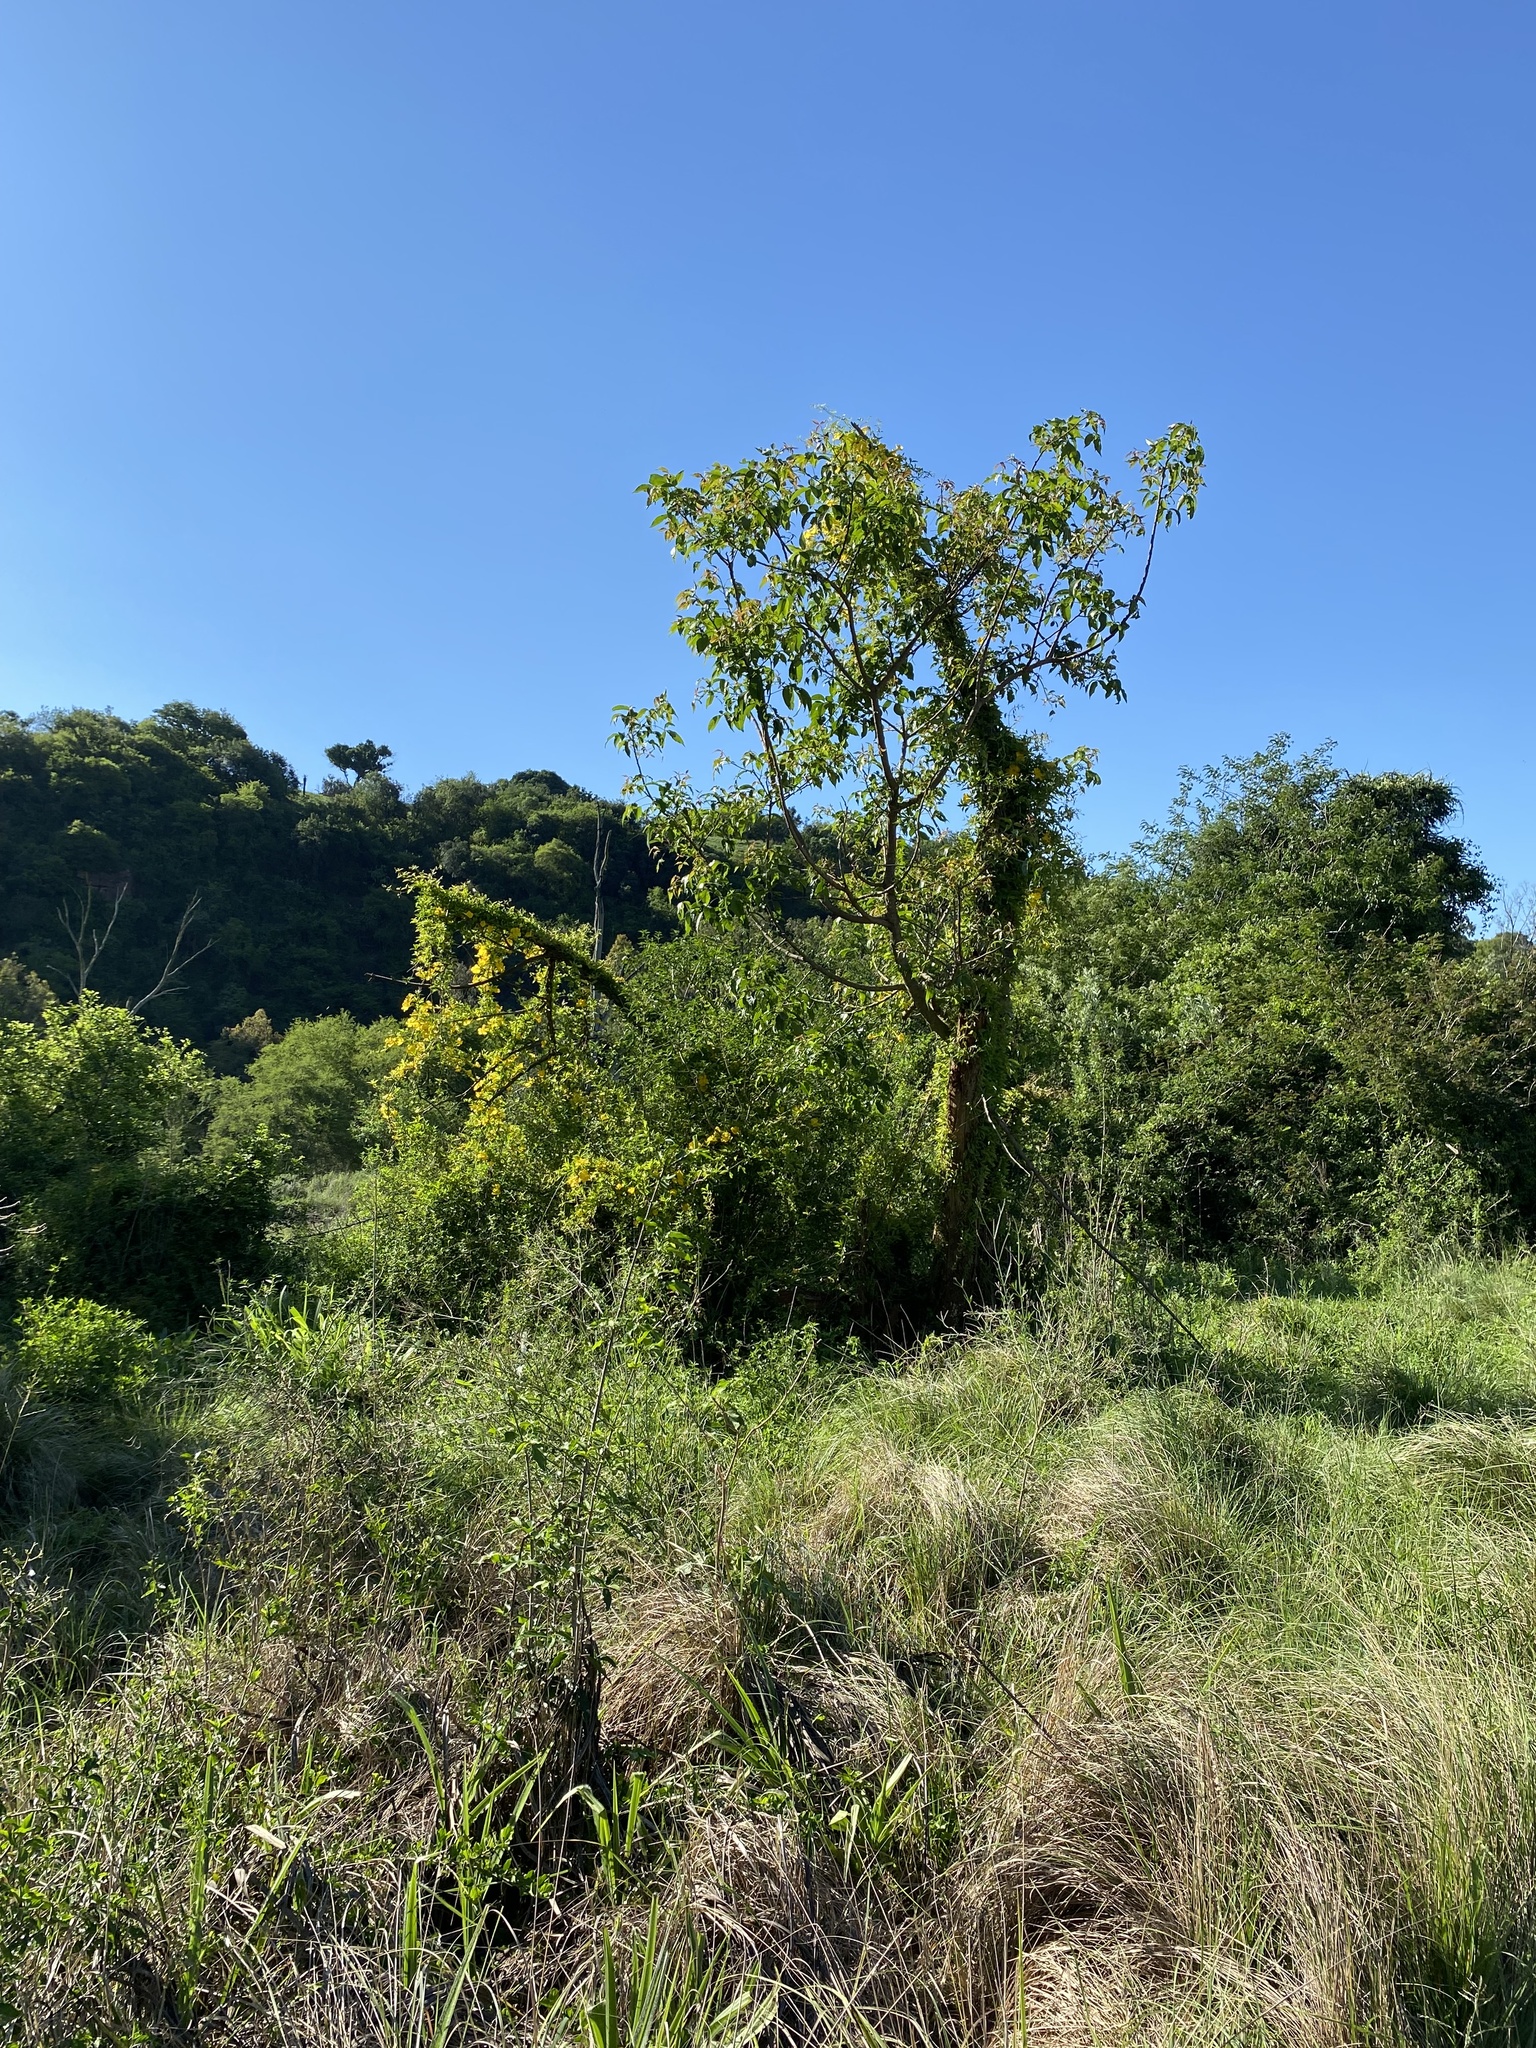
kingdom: Plantae
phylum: Tracheophyta
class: Magnoliopsida
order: Lamiales
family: Bignoniaceae
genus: Dolichandra
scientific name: Dolichandra unguis-cati
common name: Catclaw vine
